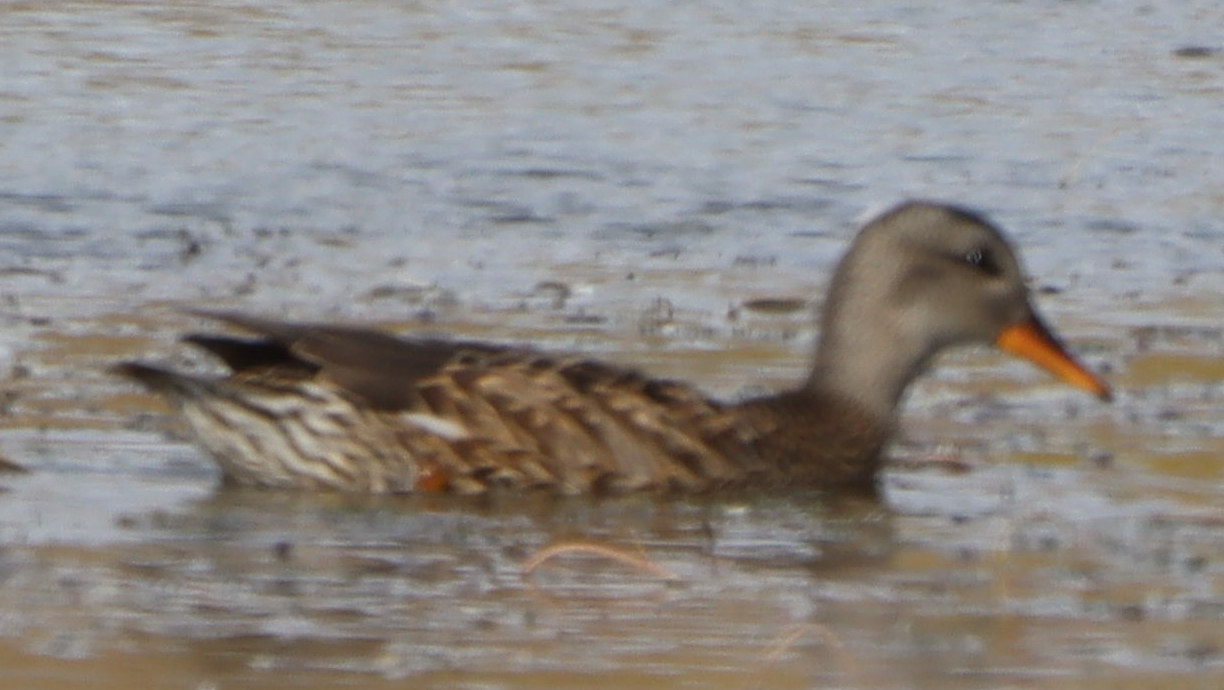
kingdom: Animalia
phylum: Chordata
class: Aves
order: Anseriformes
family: Anatidae
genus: Mareca
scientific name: Mareca strepera
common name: Gadwall
